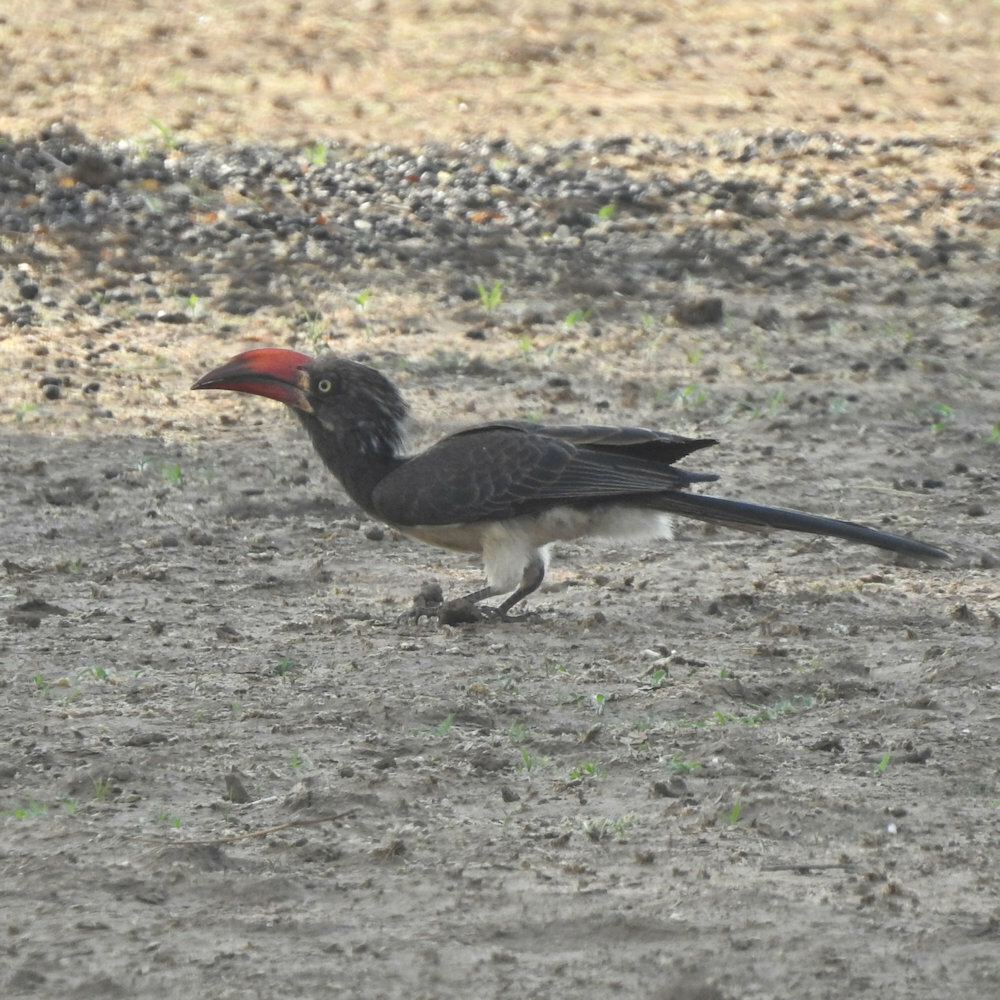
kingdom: Animalia
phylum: Chordata
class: Aves
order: Bucerotiformes
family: Bucerotidae
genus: Lophoceros
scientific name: Lophoceros alboterminatus
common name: Crowned hornbill
